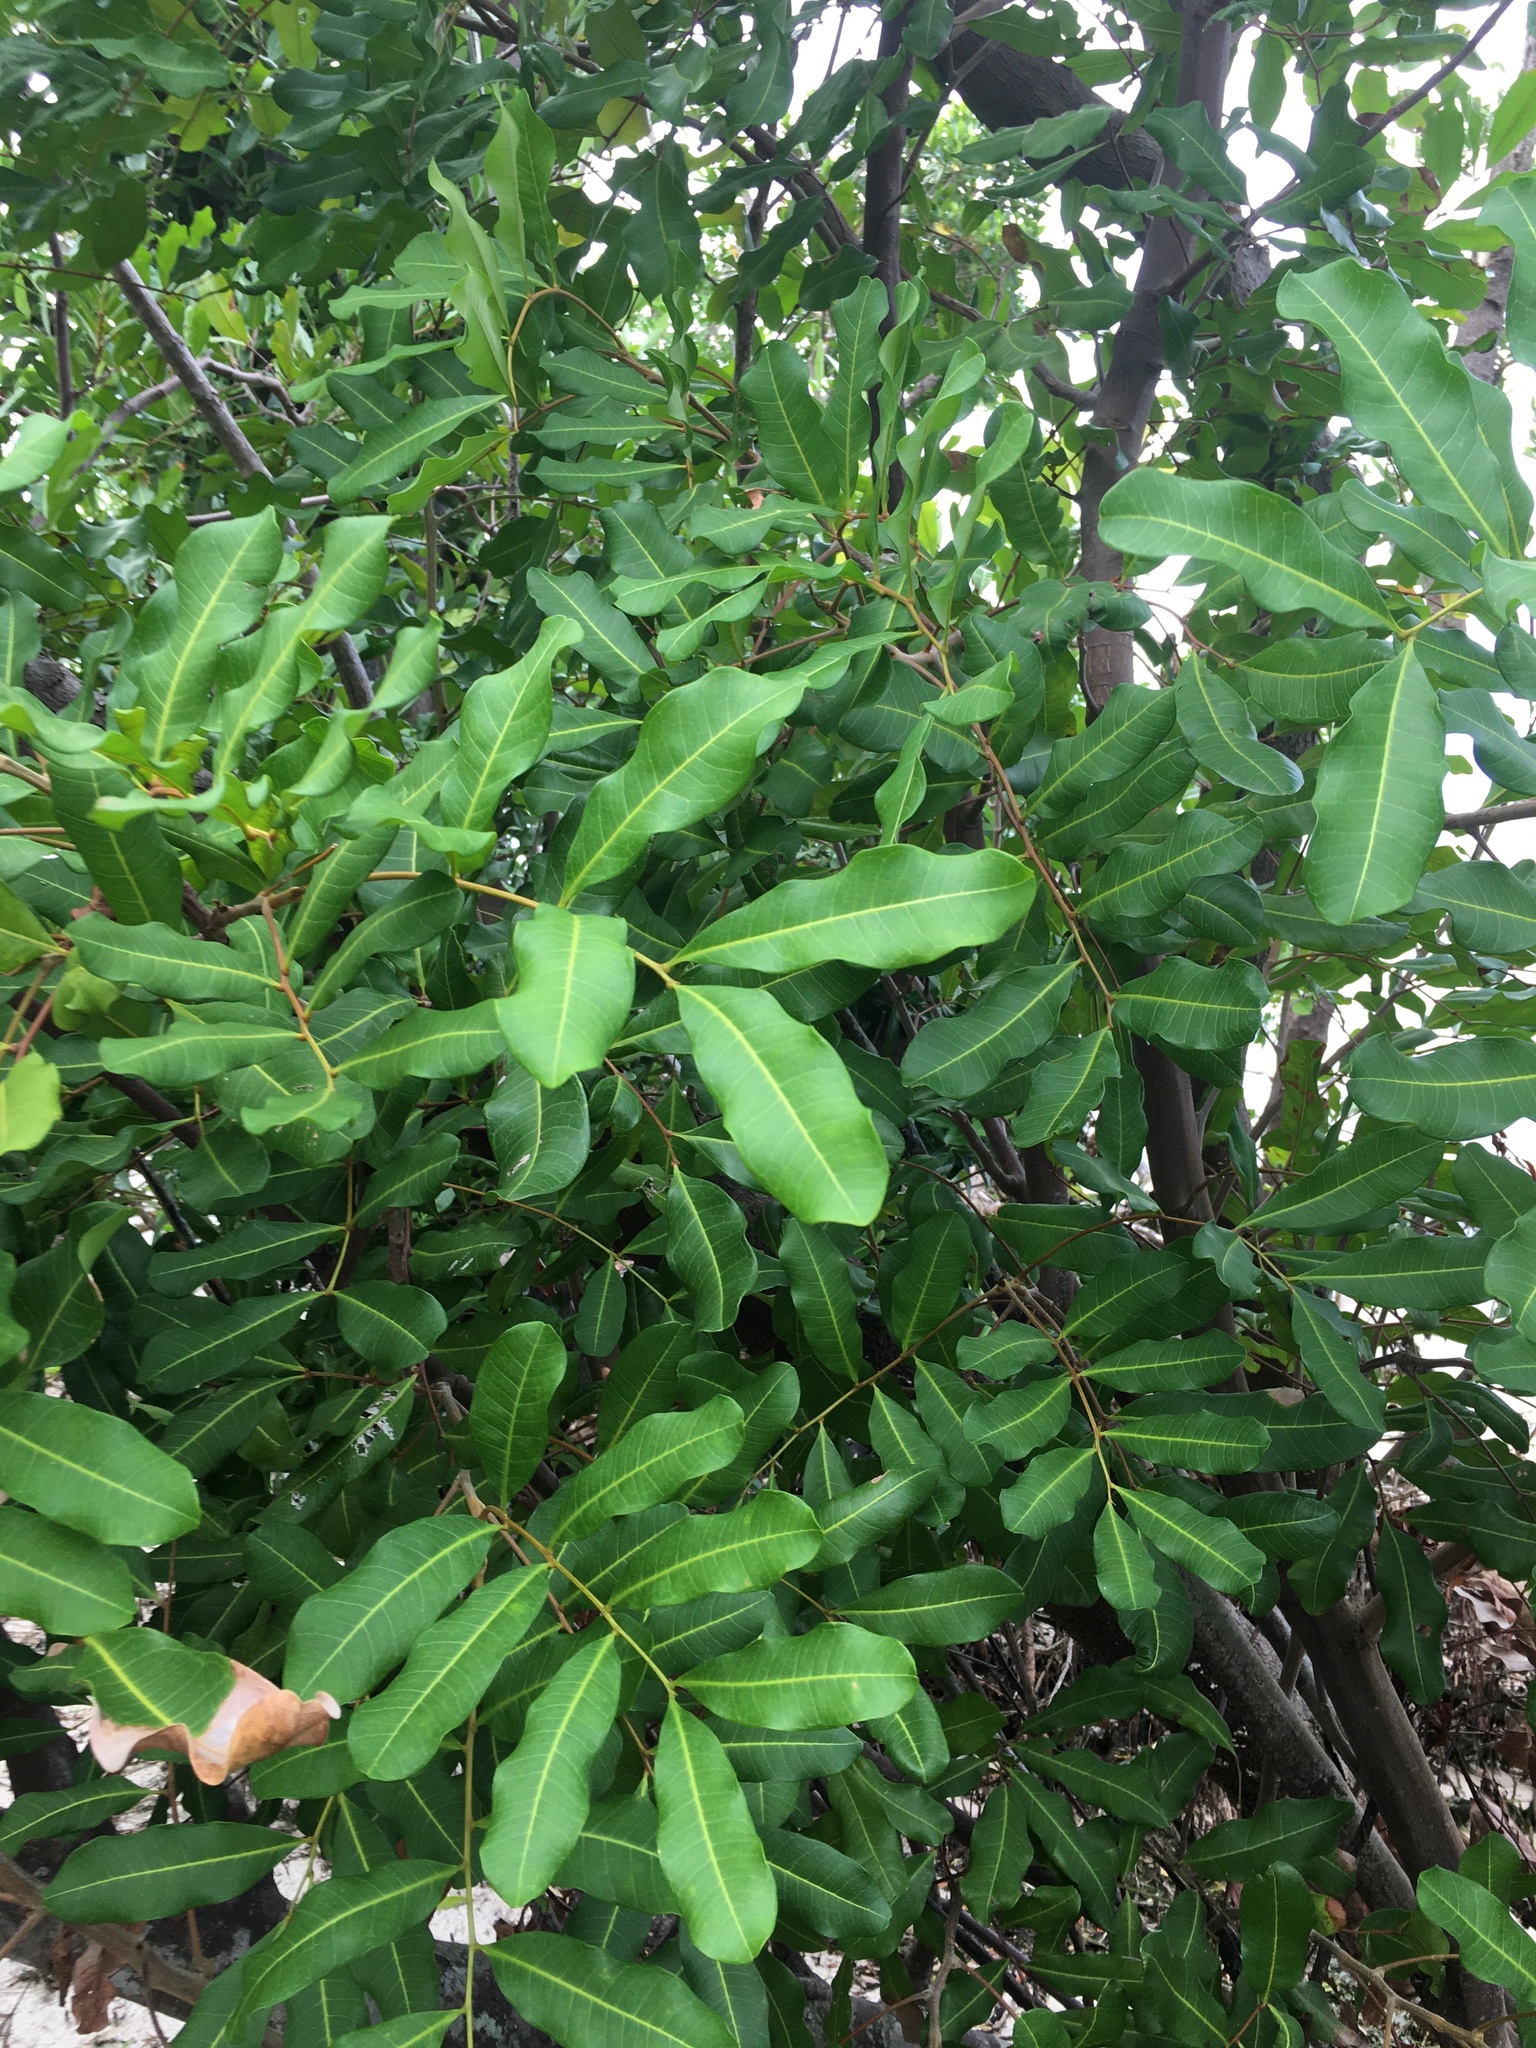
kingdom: Plantae
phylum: Tracheophyta
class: Magnoliopsida
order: Sapindales
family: Sapindaceae
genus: Cupaniopsis
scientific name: Cupaniopsis anacardioides
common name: Carrotwood
